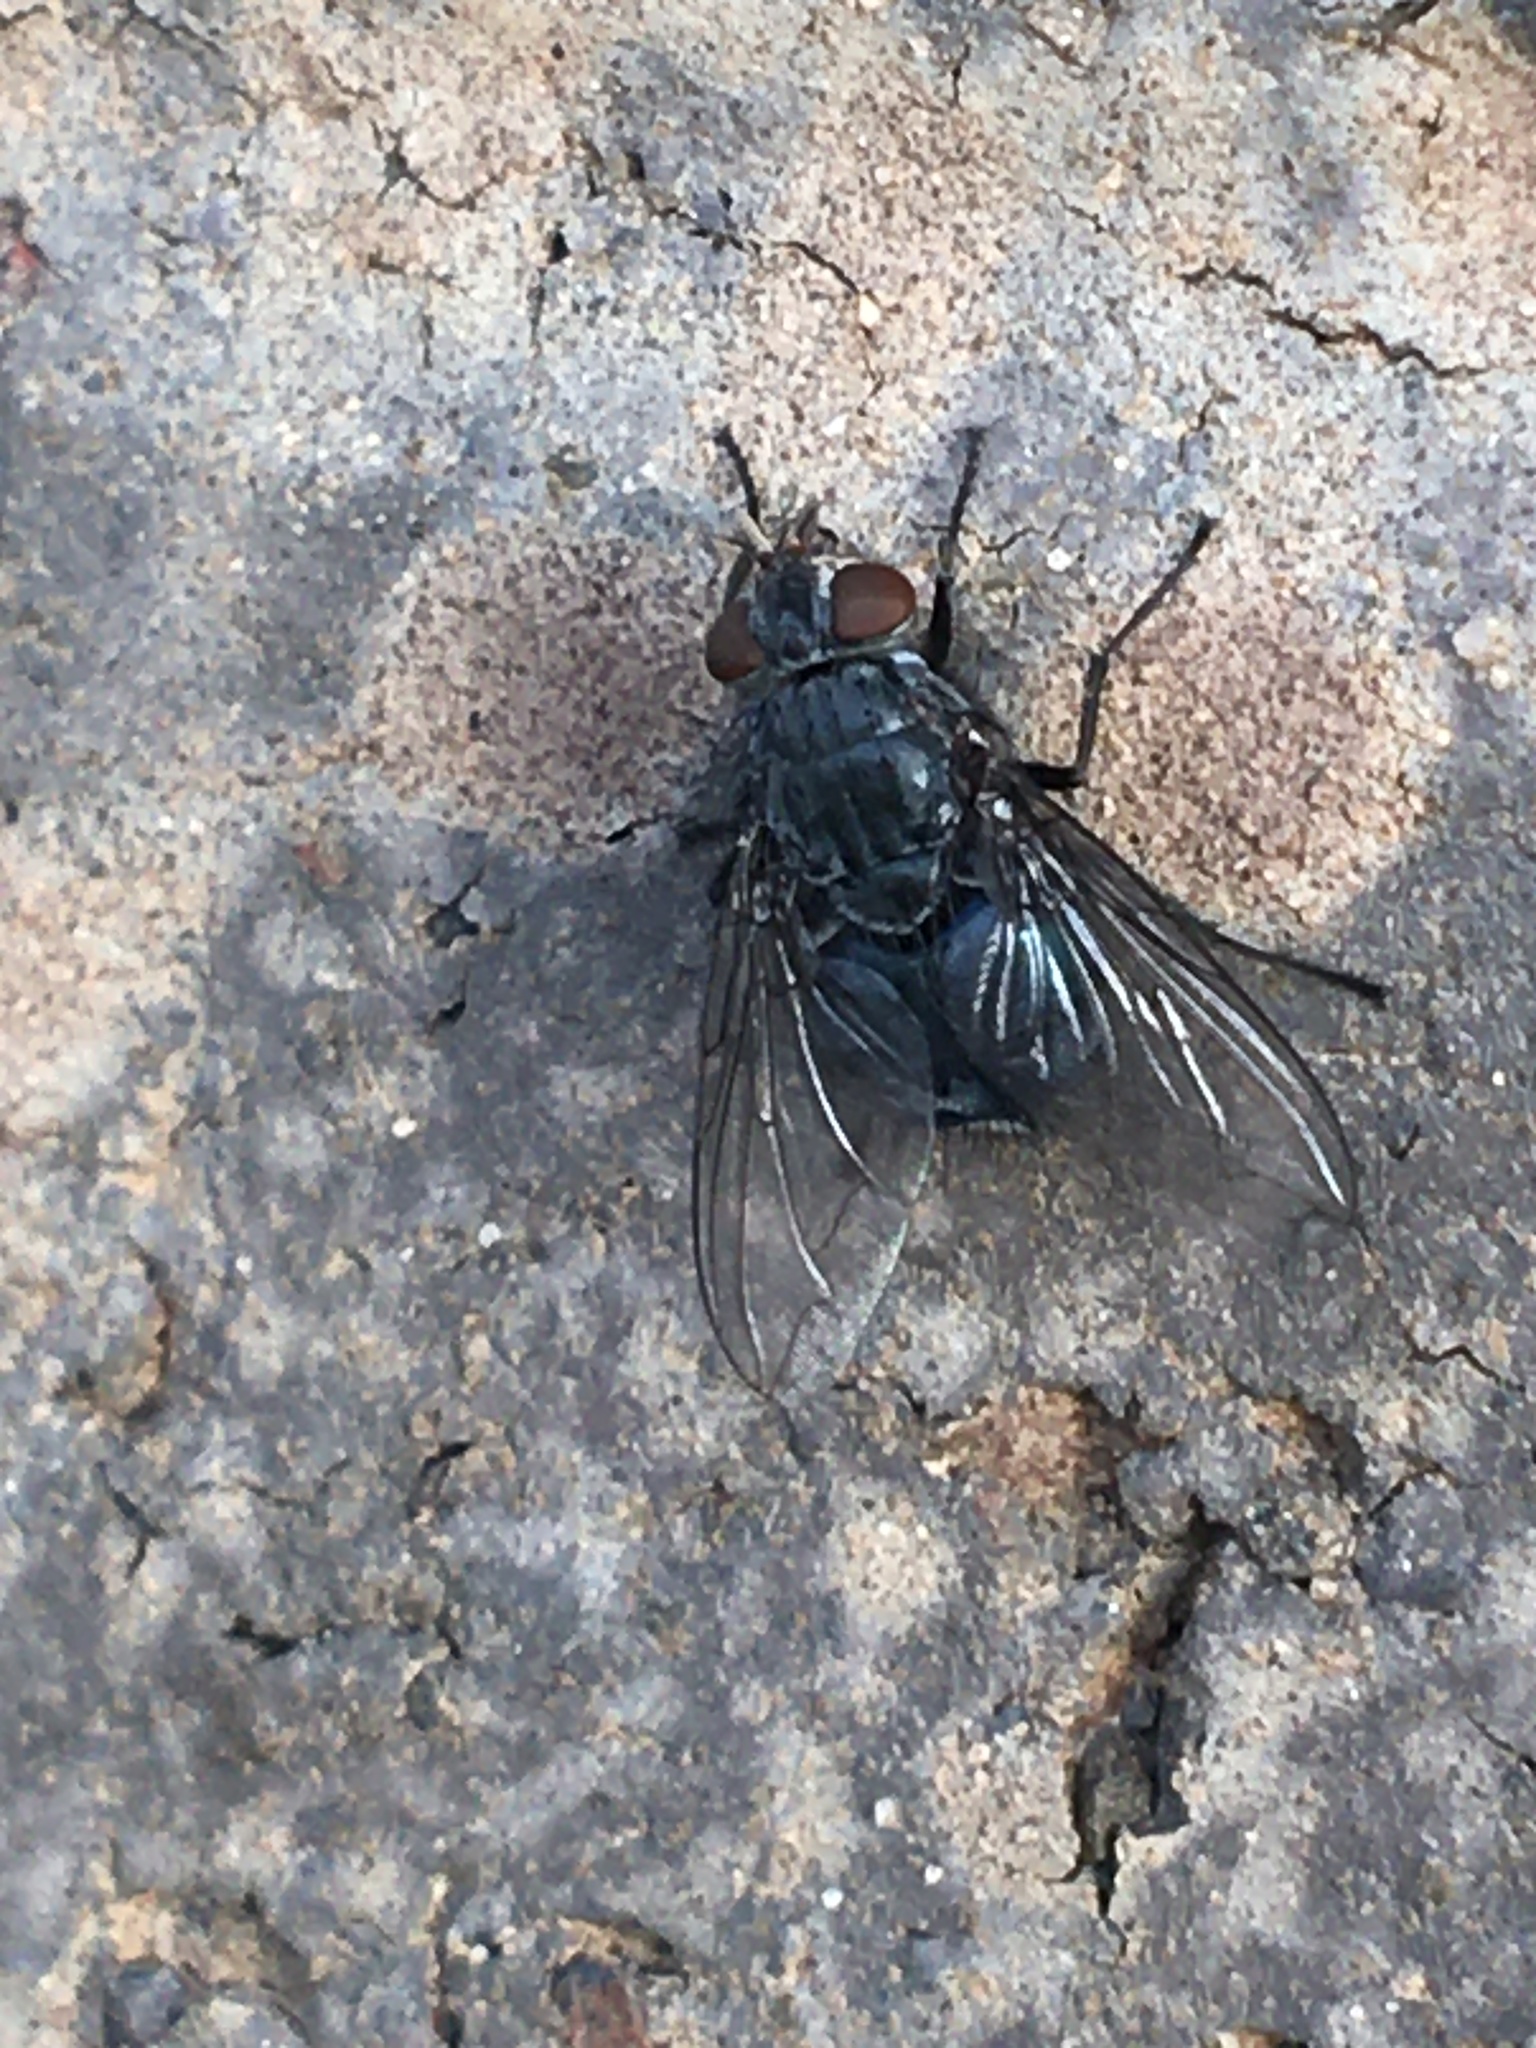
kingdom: Animalia
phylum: Arthropoda
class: Insecta
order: Diptera
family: Calliphoridae
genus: Calliphora
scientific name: Calliphora vicina
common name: Common blow flie
